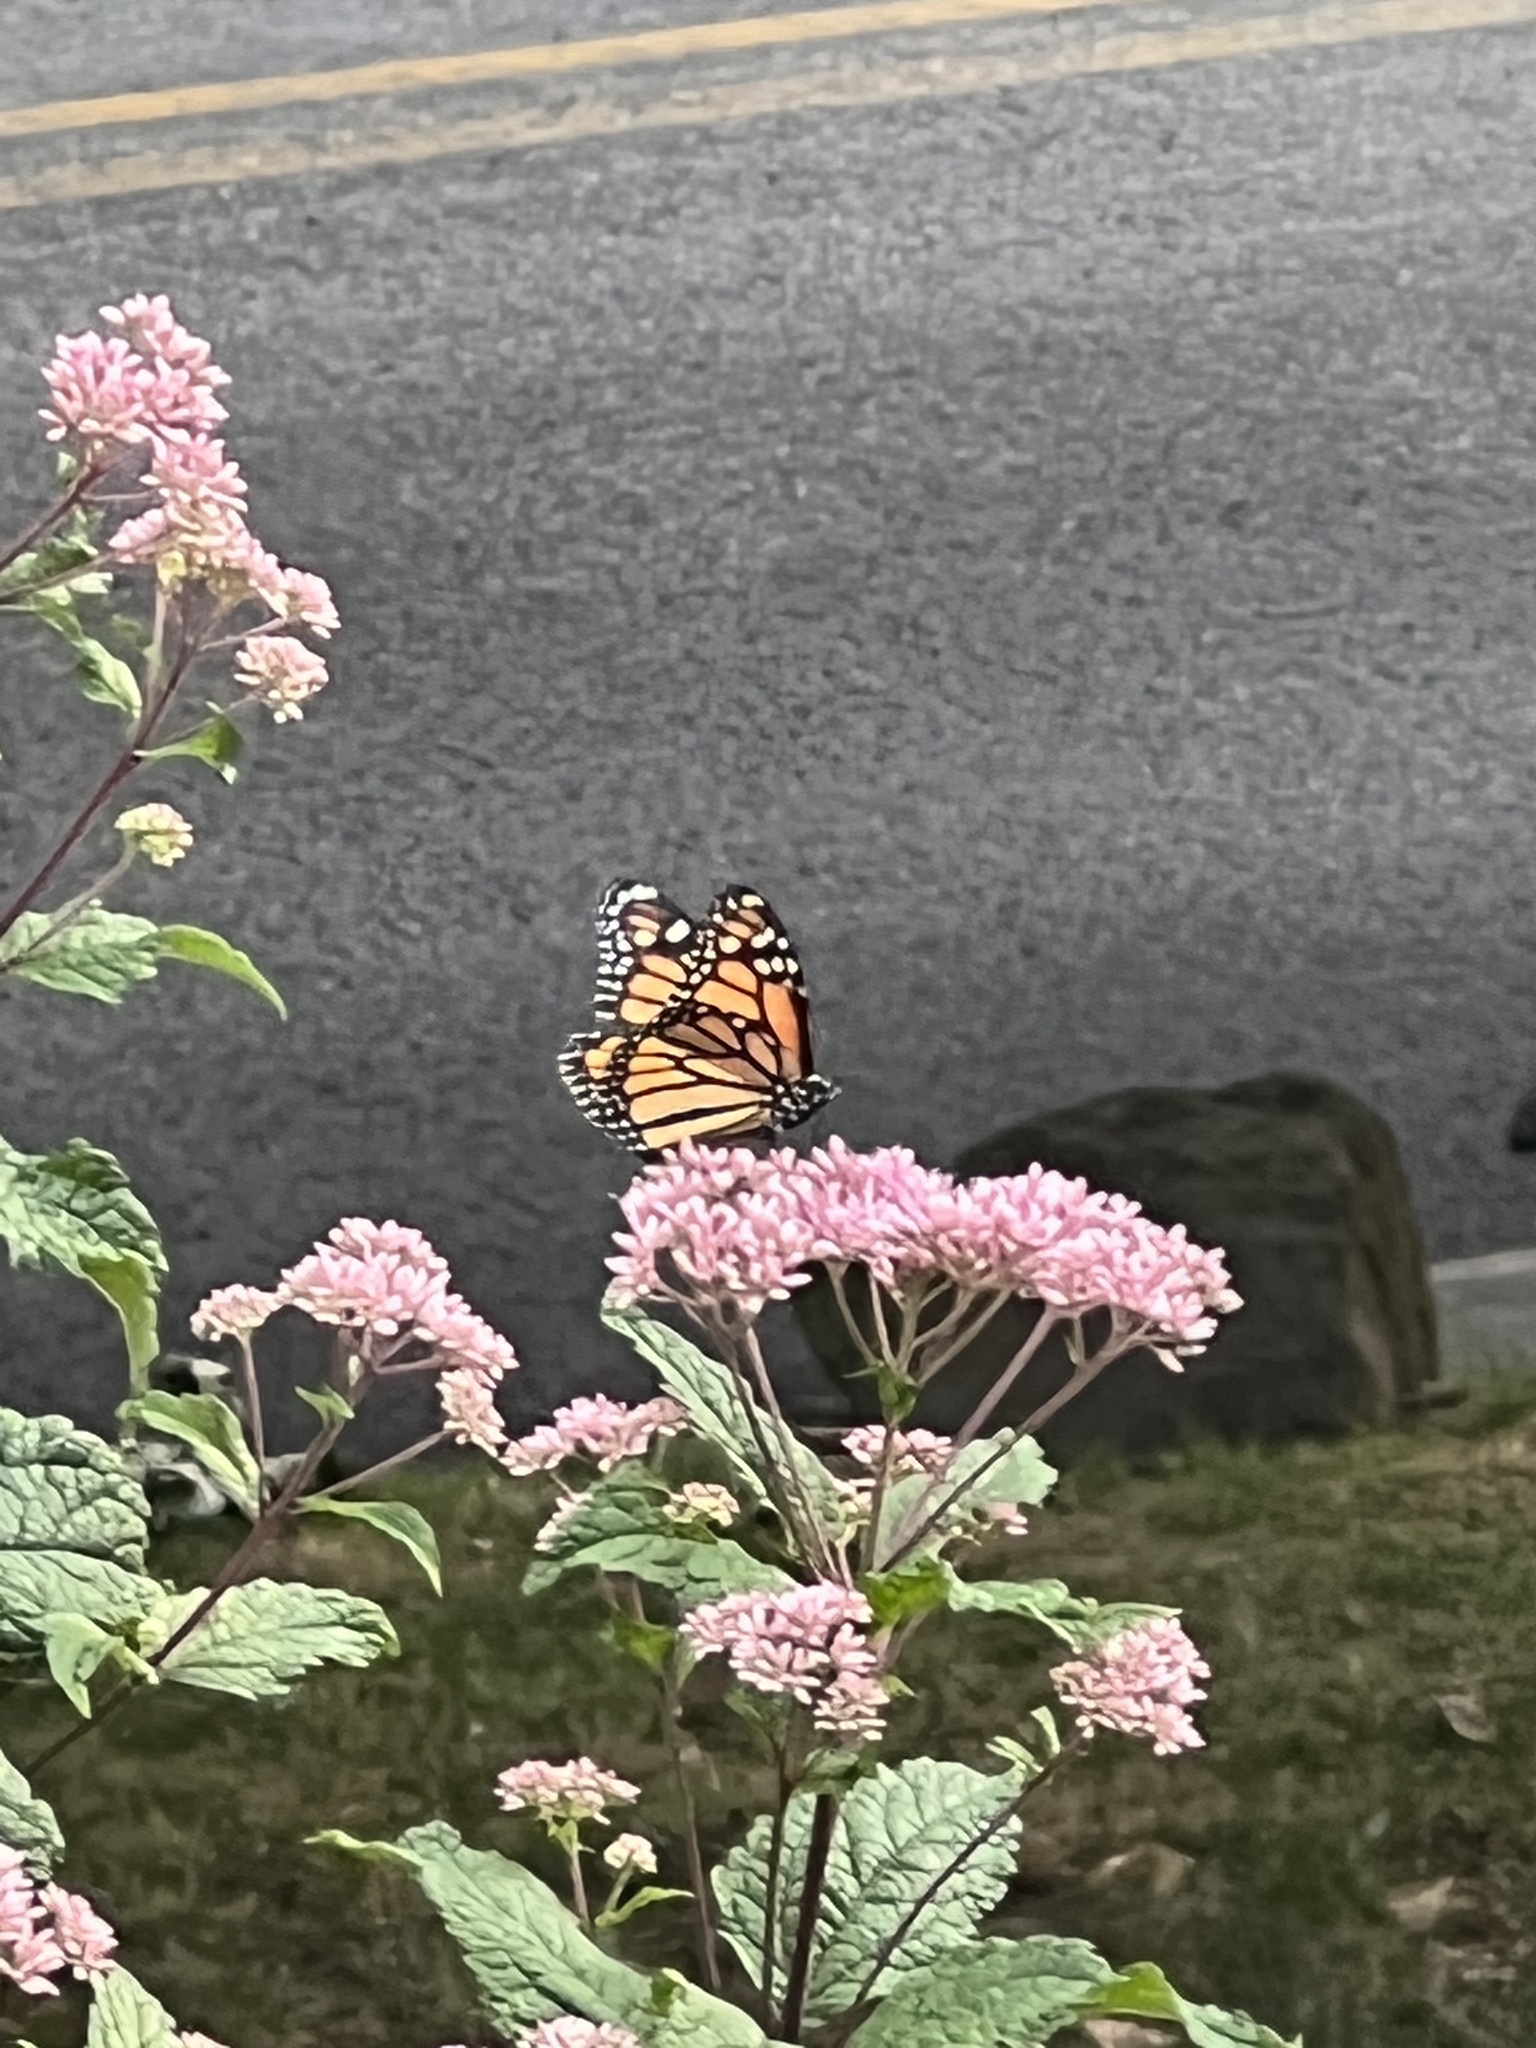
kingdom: Animalia
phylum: Arthropoda
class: Insecta
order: Lepidoptera
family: Nymphalidae
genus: Danaus
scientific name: Danaus plexippus
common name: Monarch
